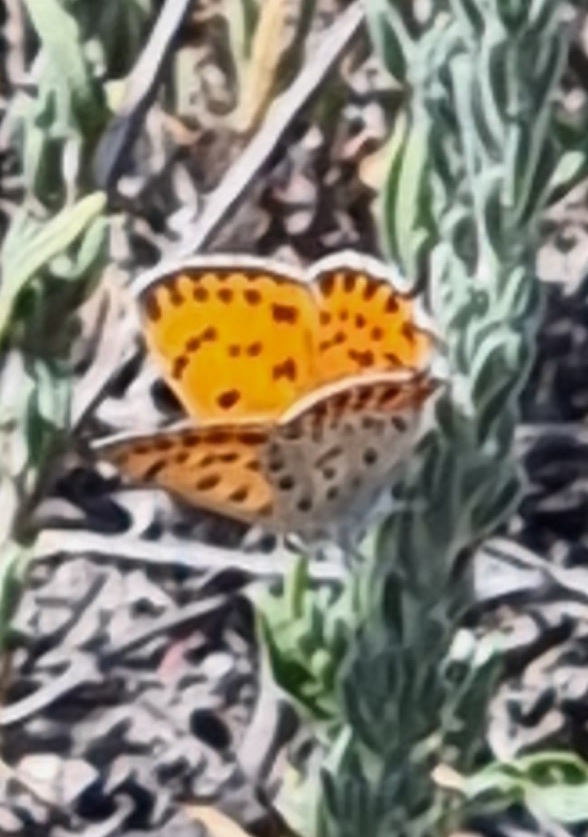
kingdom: Animalia
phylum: Arthropoda
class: Insecta
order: Lepidoptera
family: Lycaenidae
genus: Thersamonia
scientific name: Thersamonia thersamon
